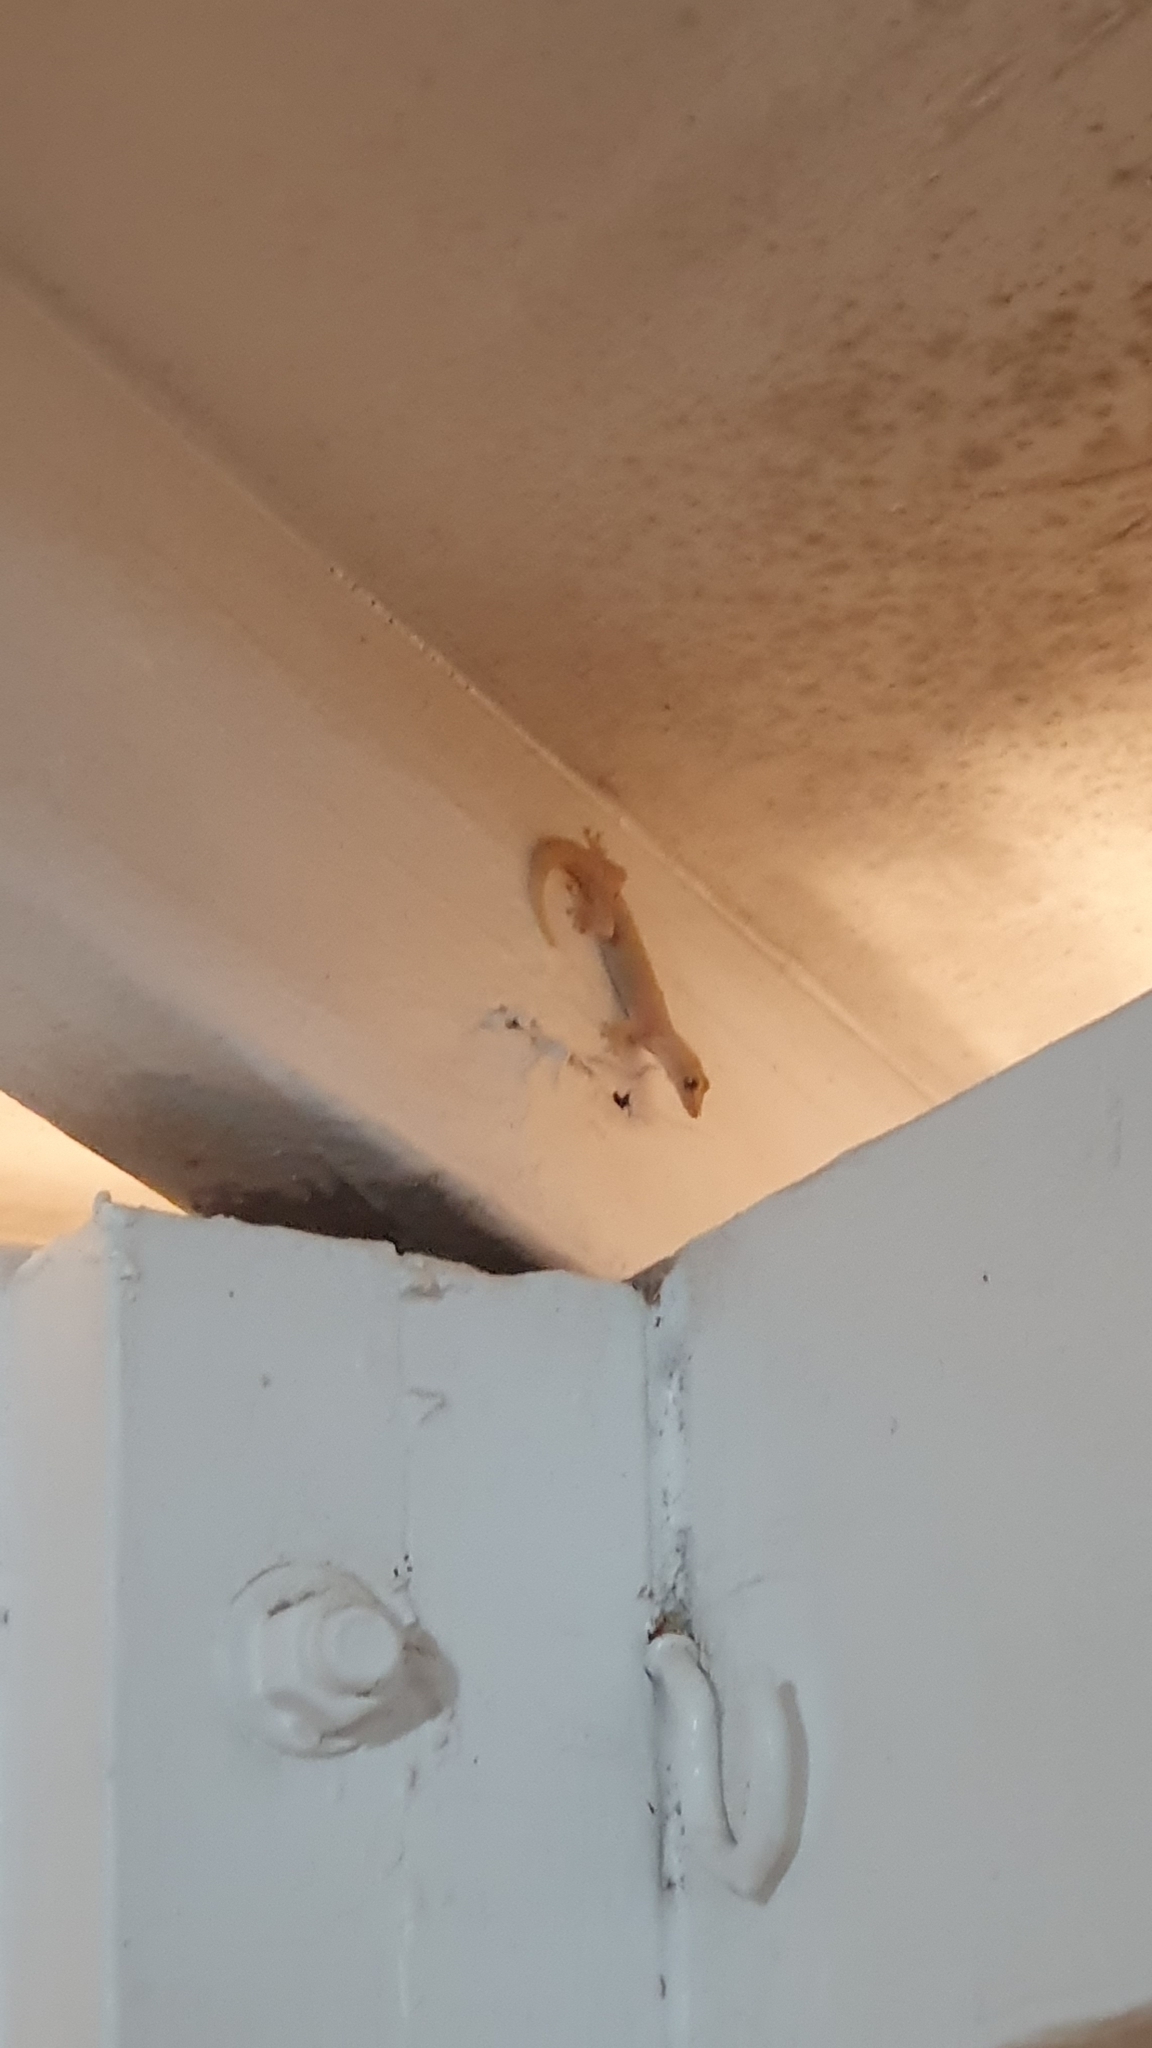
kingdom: Animalia
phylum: Chordata
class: Squamata
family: Gekkonidae
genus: Lepidodactylus
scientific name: Lepidodactylus lugubris
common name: Mourning gecko
